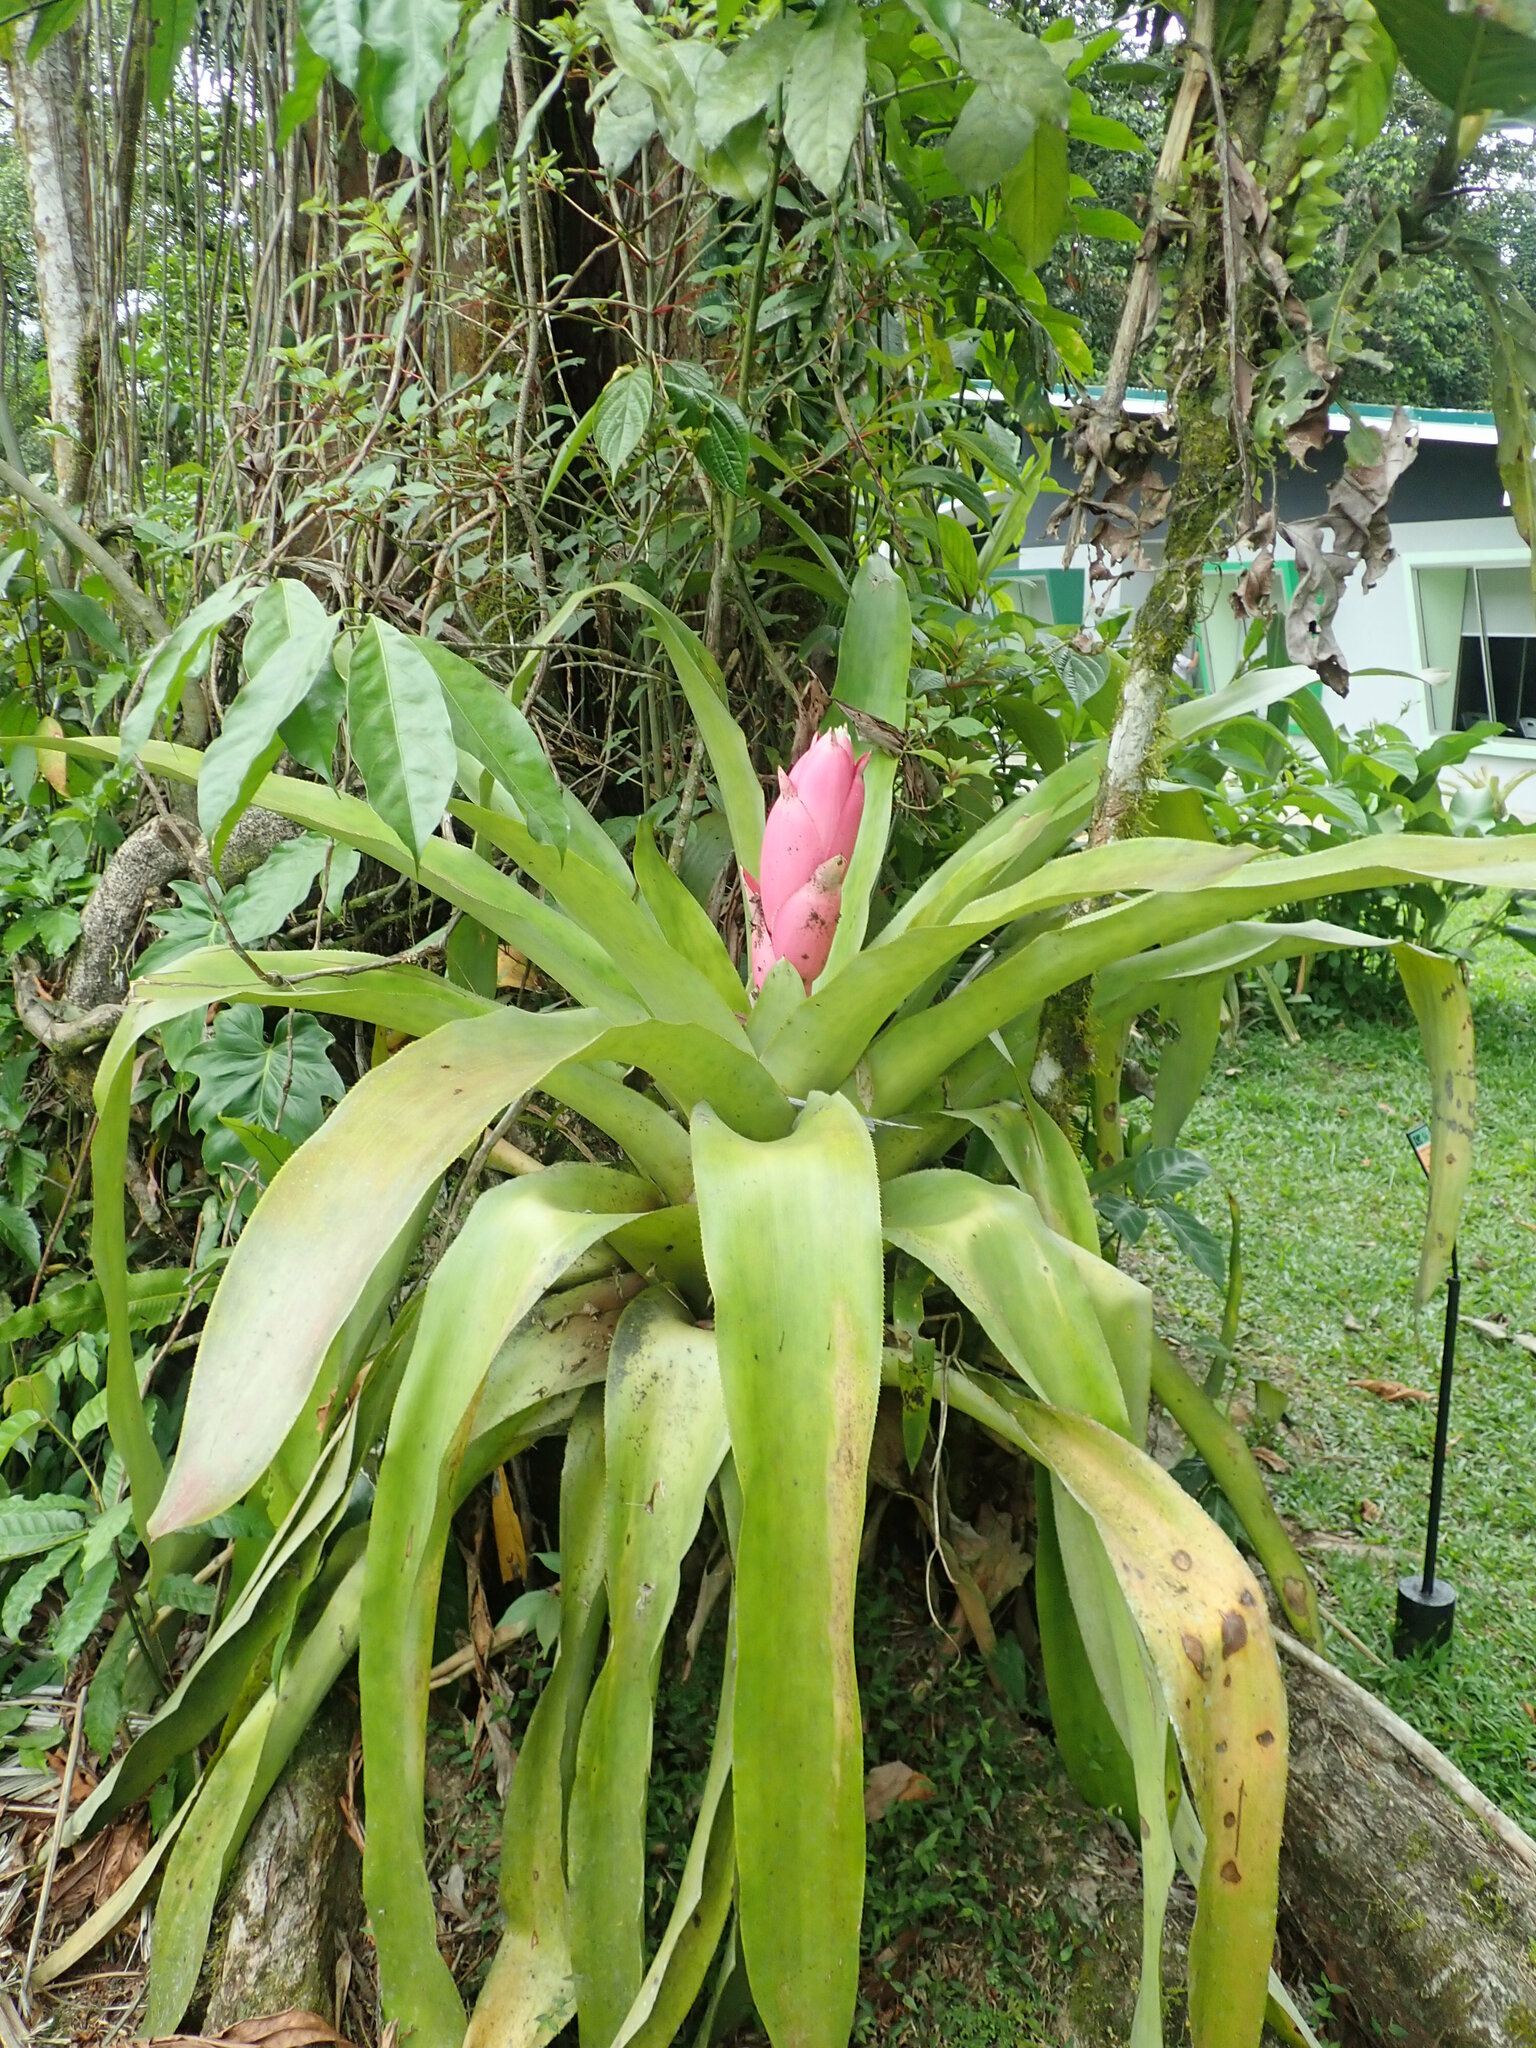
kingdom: Plantae
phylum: Tracheophyta
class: Liliopsida
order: Poales
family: Bromeliaceae
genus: Aechmea
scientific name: Aechmea mariae-reginae
